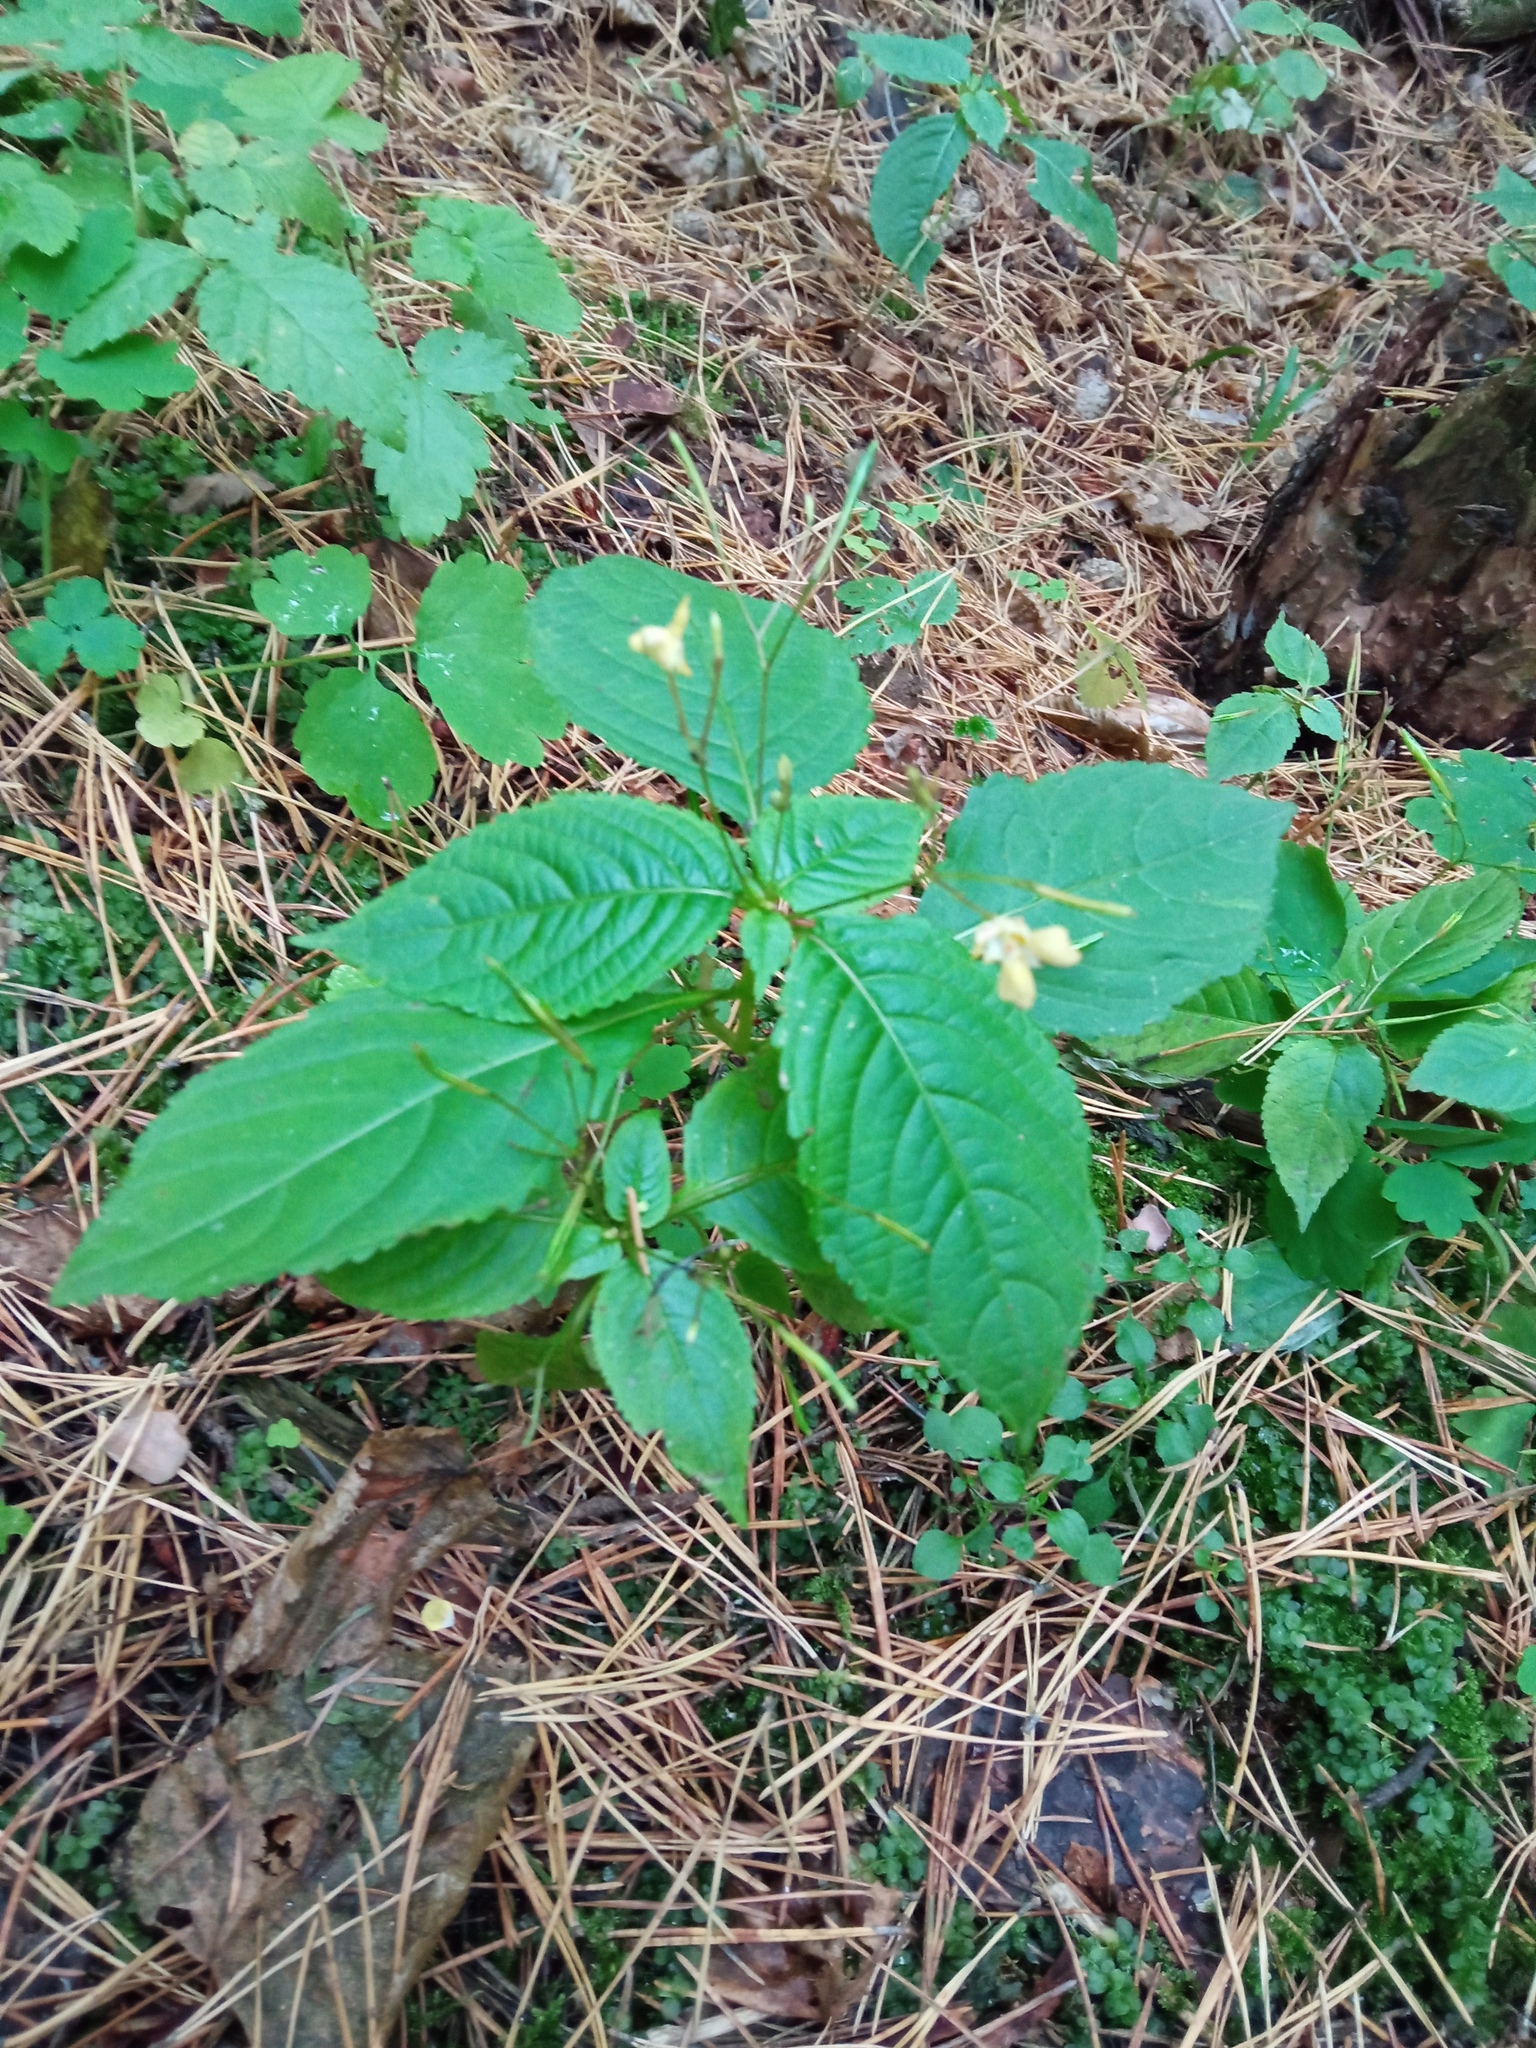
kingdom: Plantae
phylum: Tracheophyta
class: Magnoliopsida
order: Ericales
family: Balsaminaceae
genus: Impatiens
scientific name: Impatiens parviflora
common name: Small balsam
